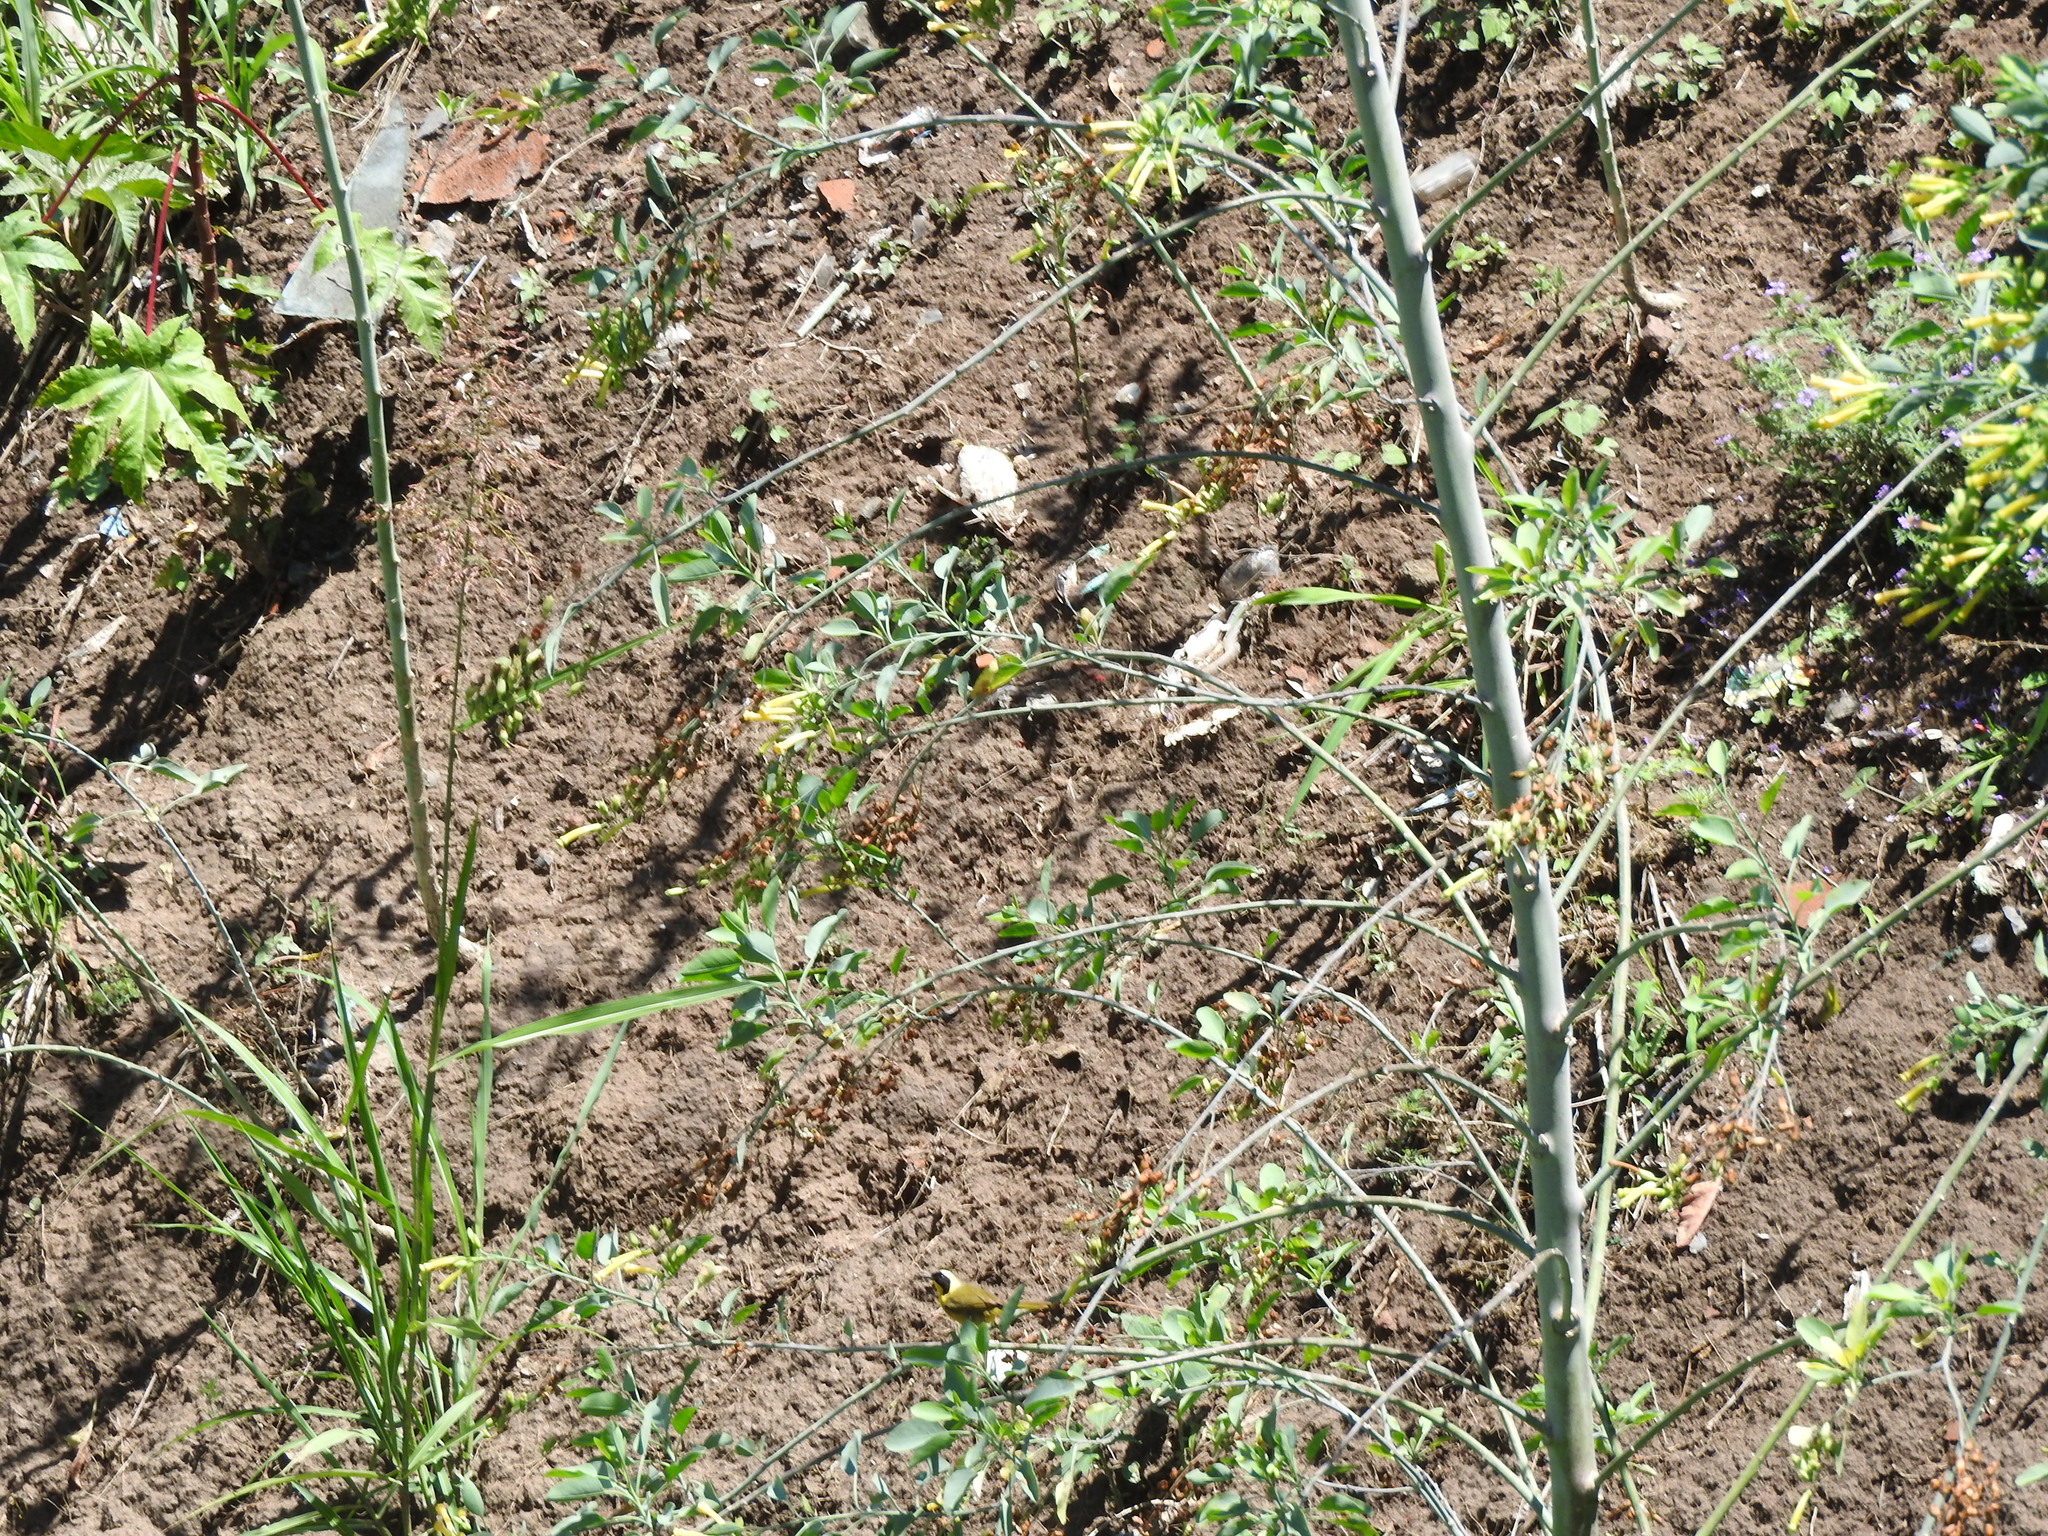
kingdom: Animalia
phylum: Chordata
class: Aves
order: Passeriformes
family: Parulidae
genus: Geothlypis
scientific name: Geothlypis trichas
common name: Common yellowthroat
